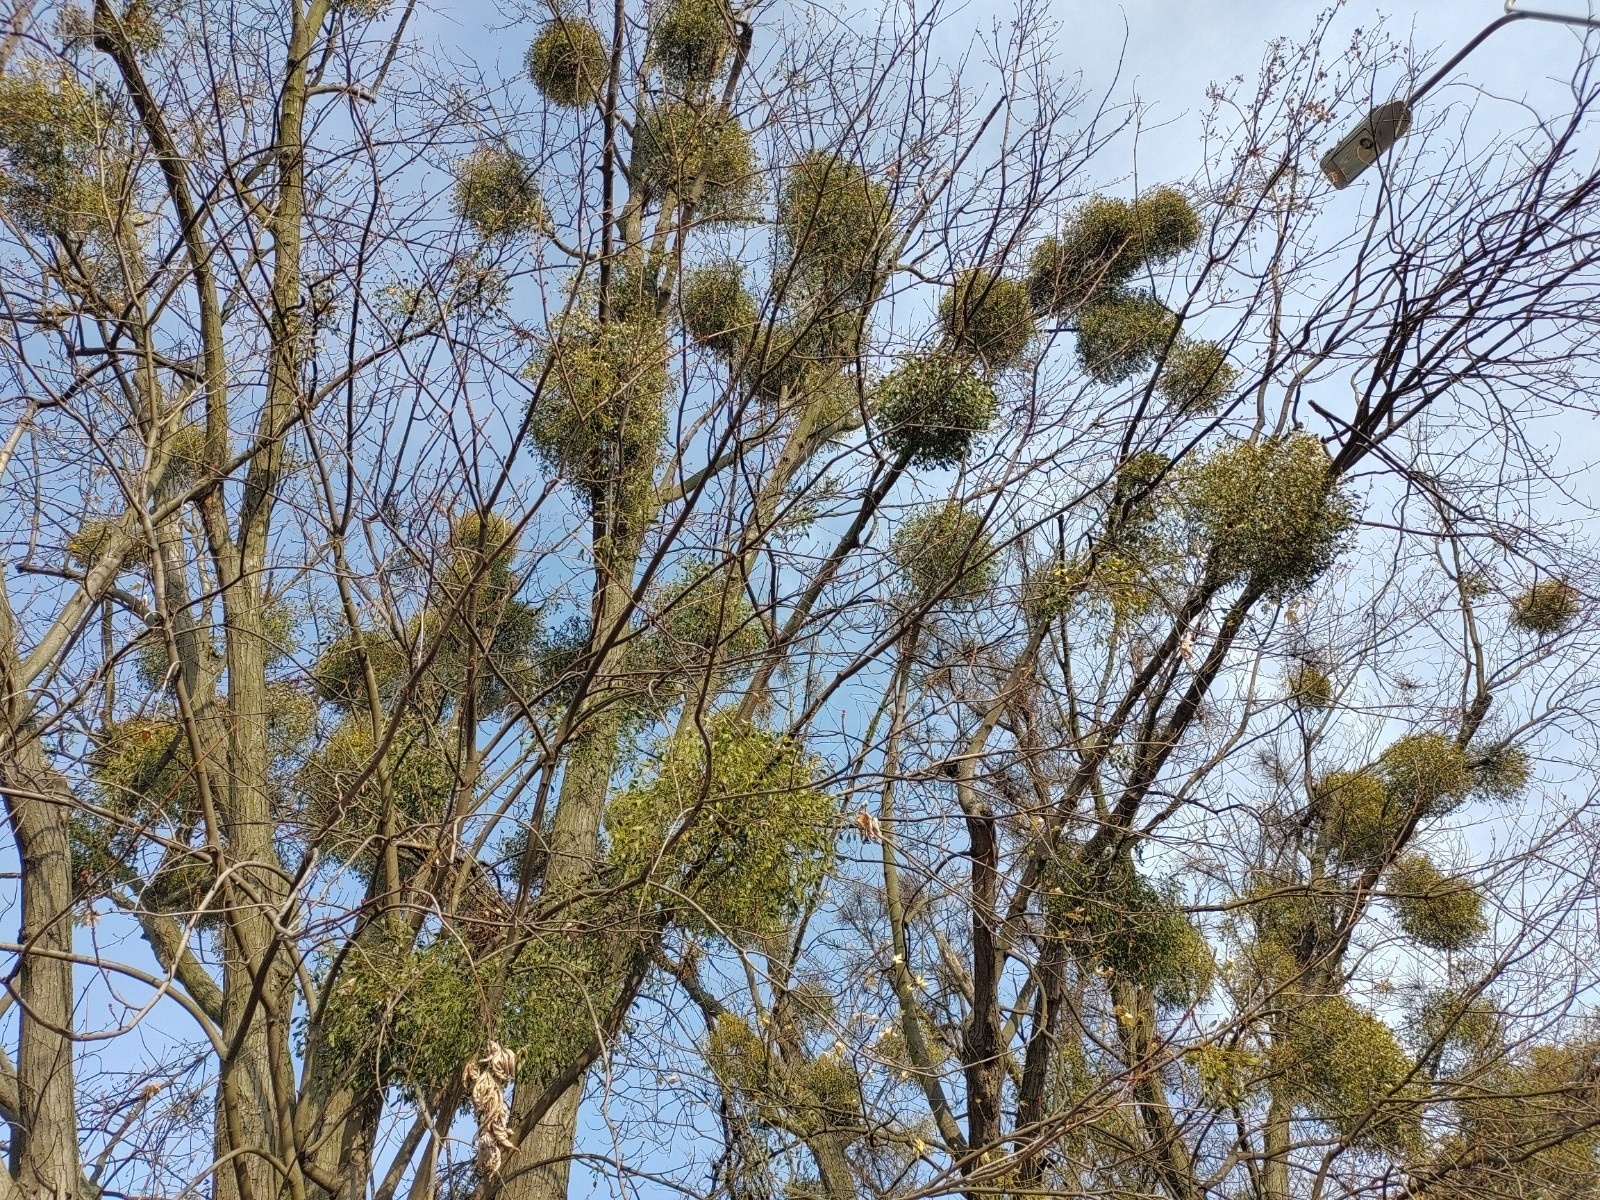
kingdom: Plantae
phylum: Tracheophyta
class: Magnoliopsida
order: Santalales
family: Viscaceae
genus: Viscum
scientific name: Viscum album
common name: Mistletoe
